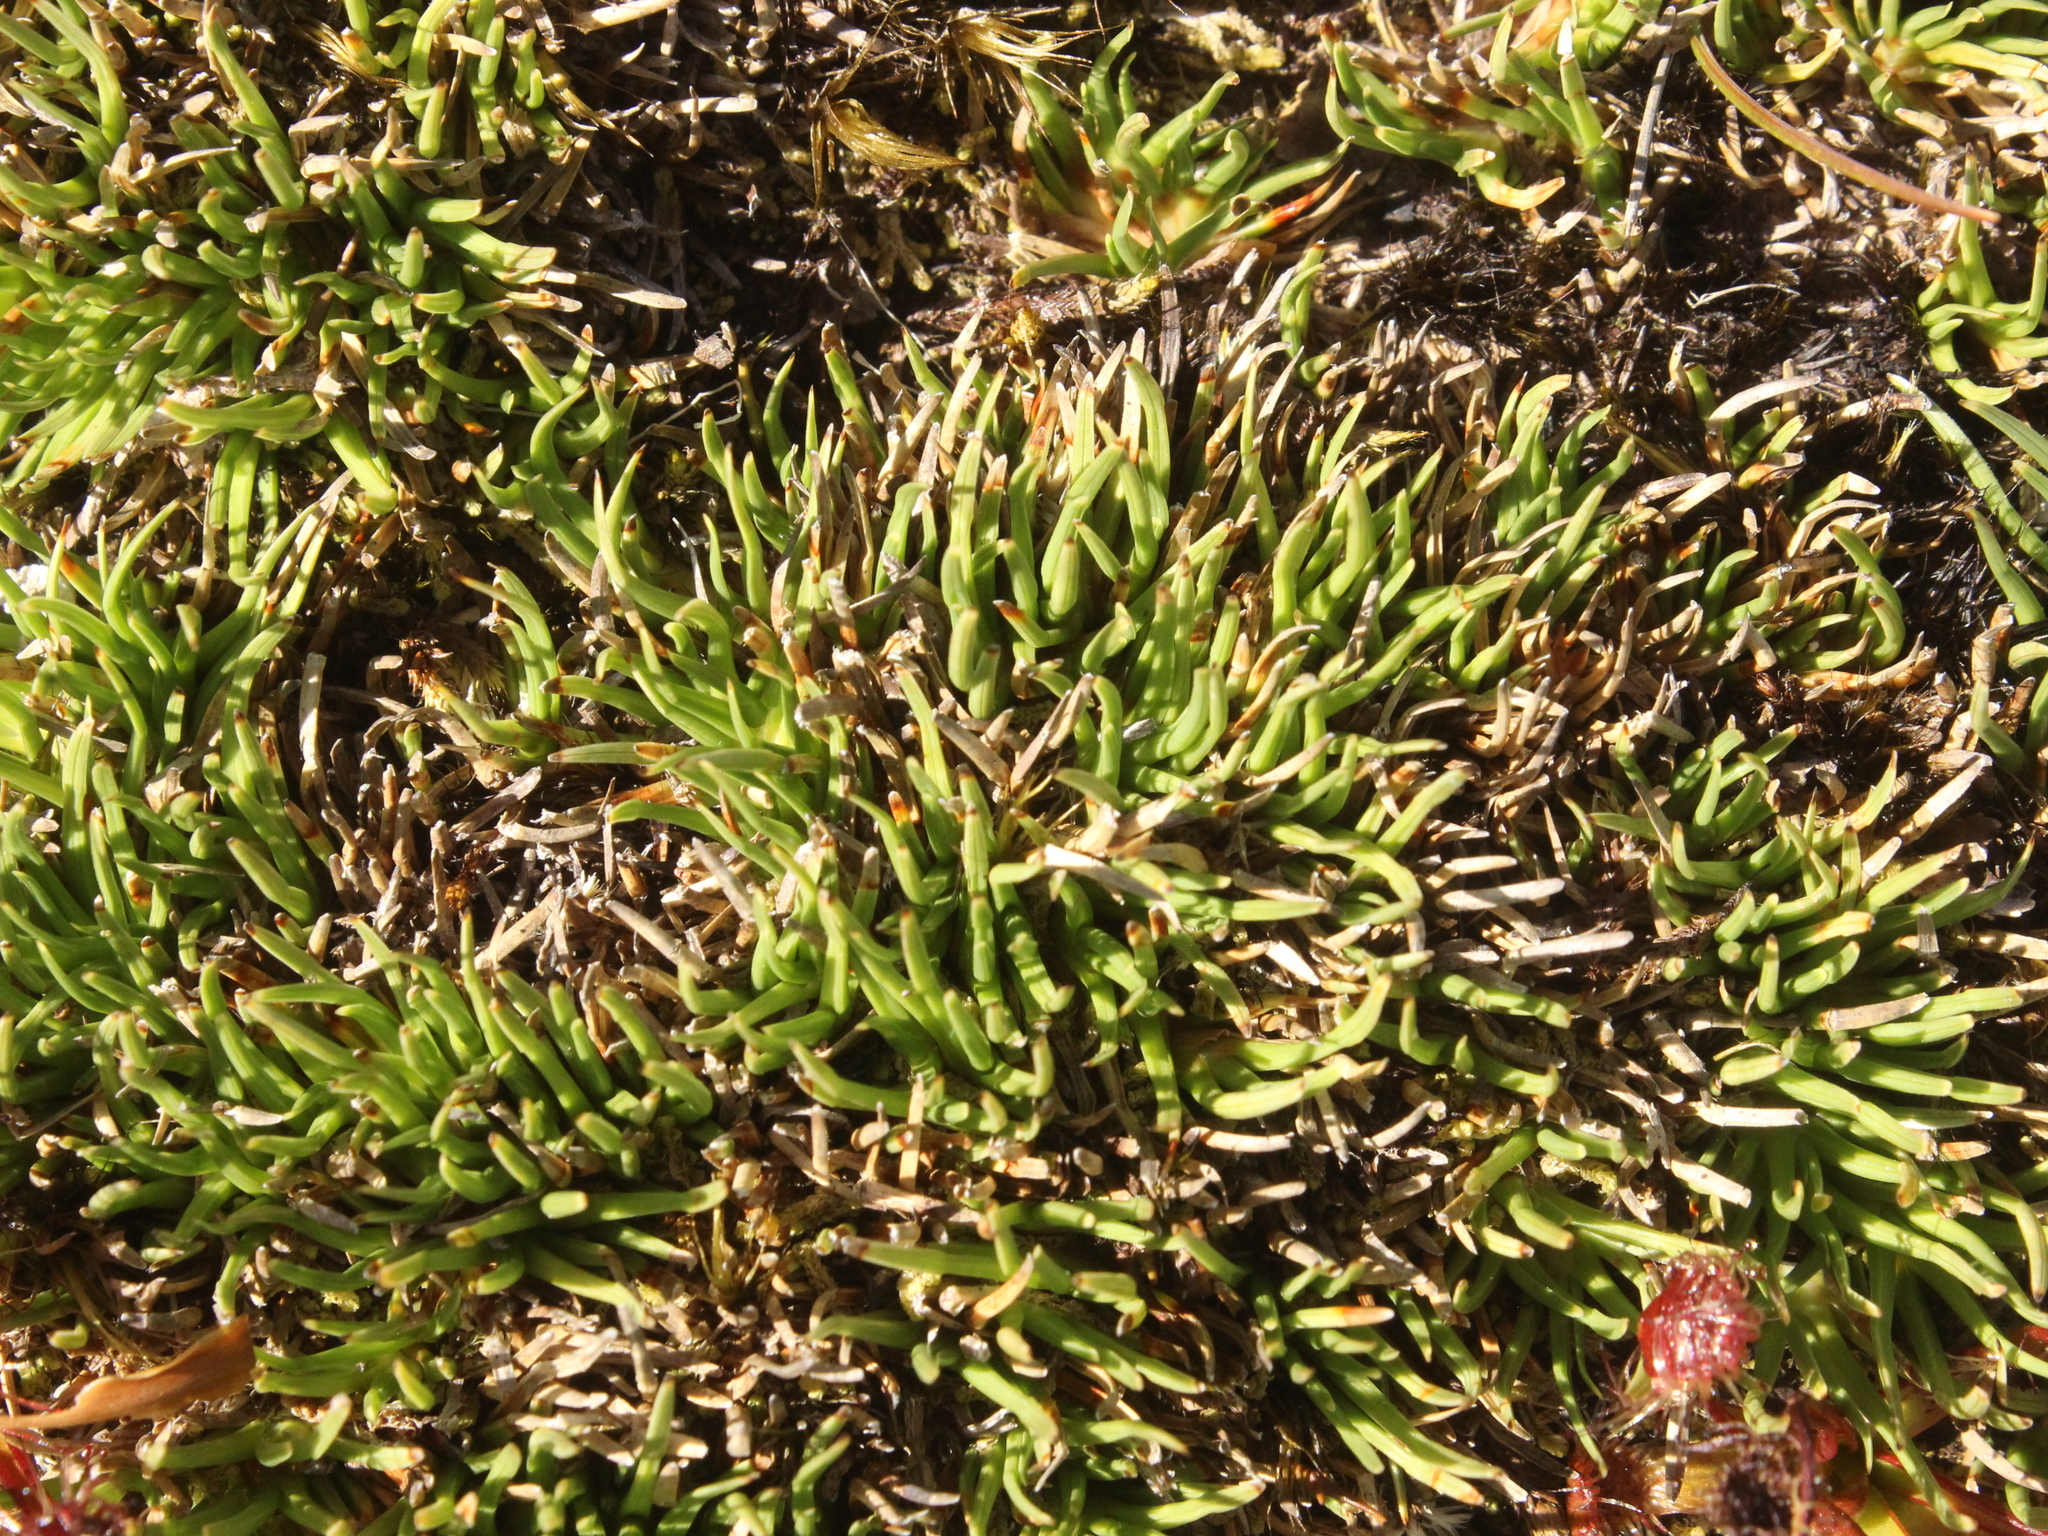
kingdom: Plantae
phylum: Tracheophyta
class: Liliopsida
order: Poales
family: Cyperaceae
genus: Oreobolus
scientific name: Oreobolus pectinatus
